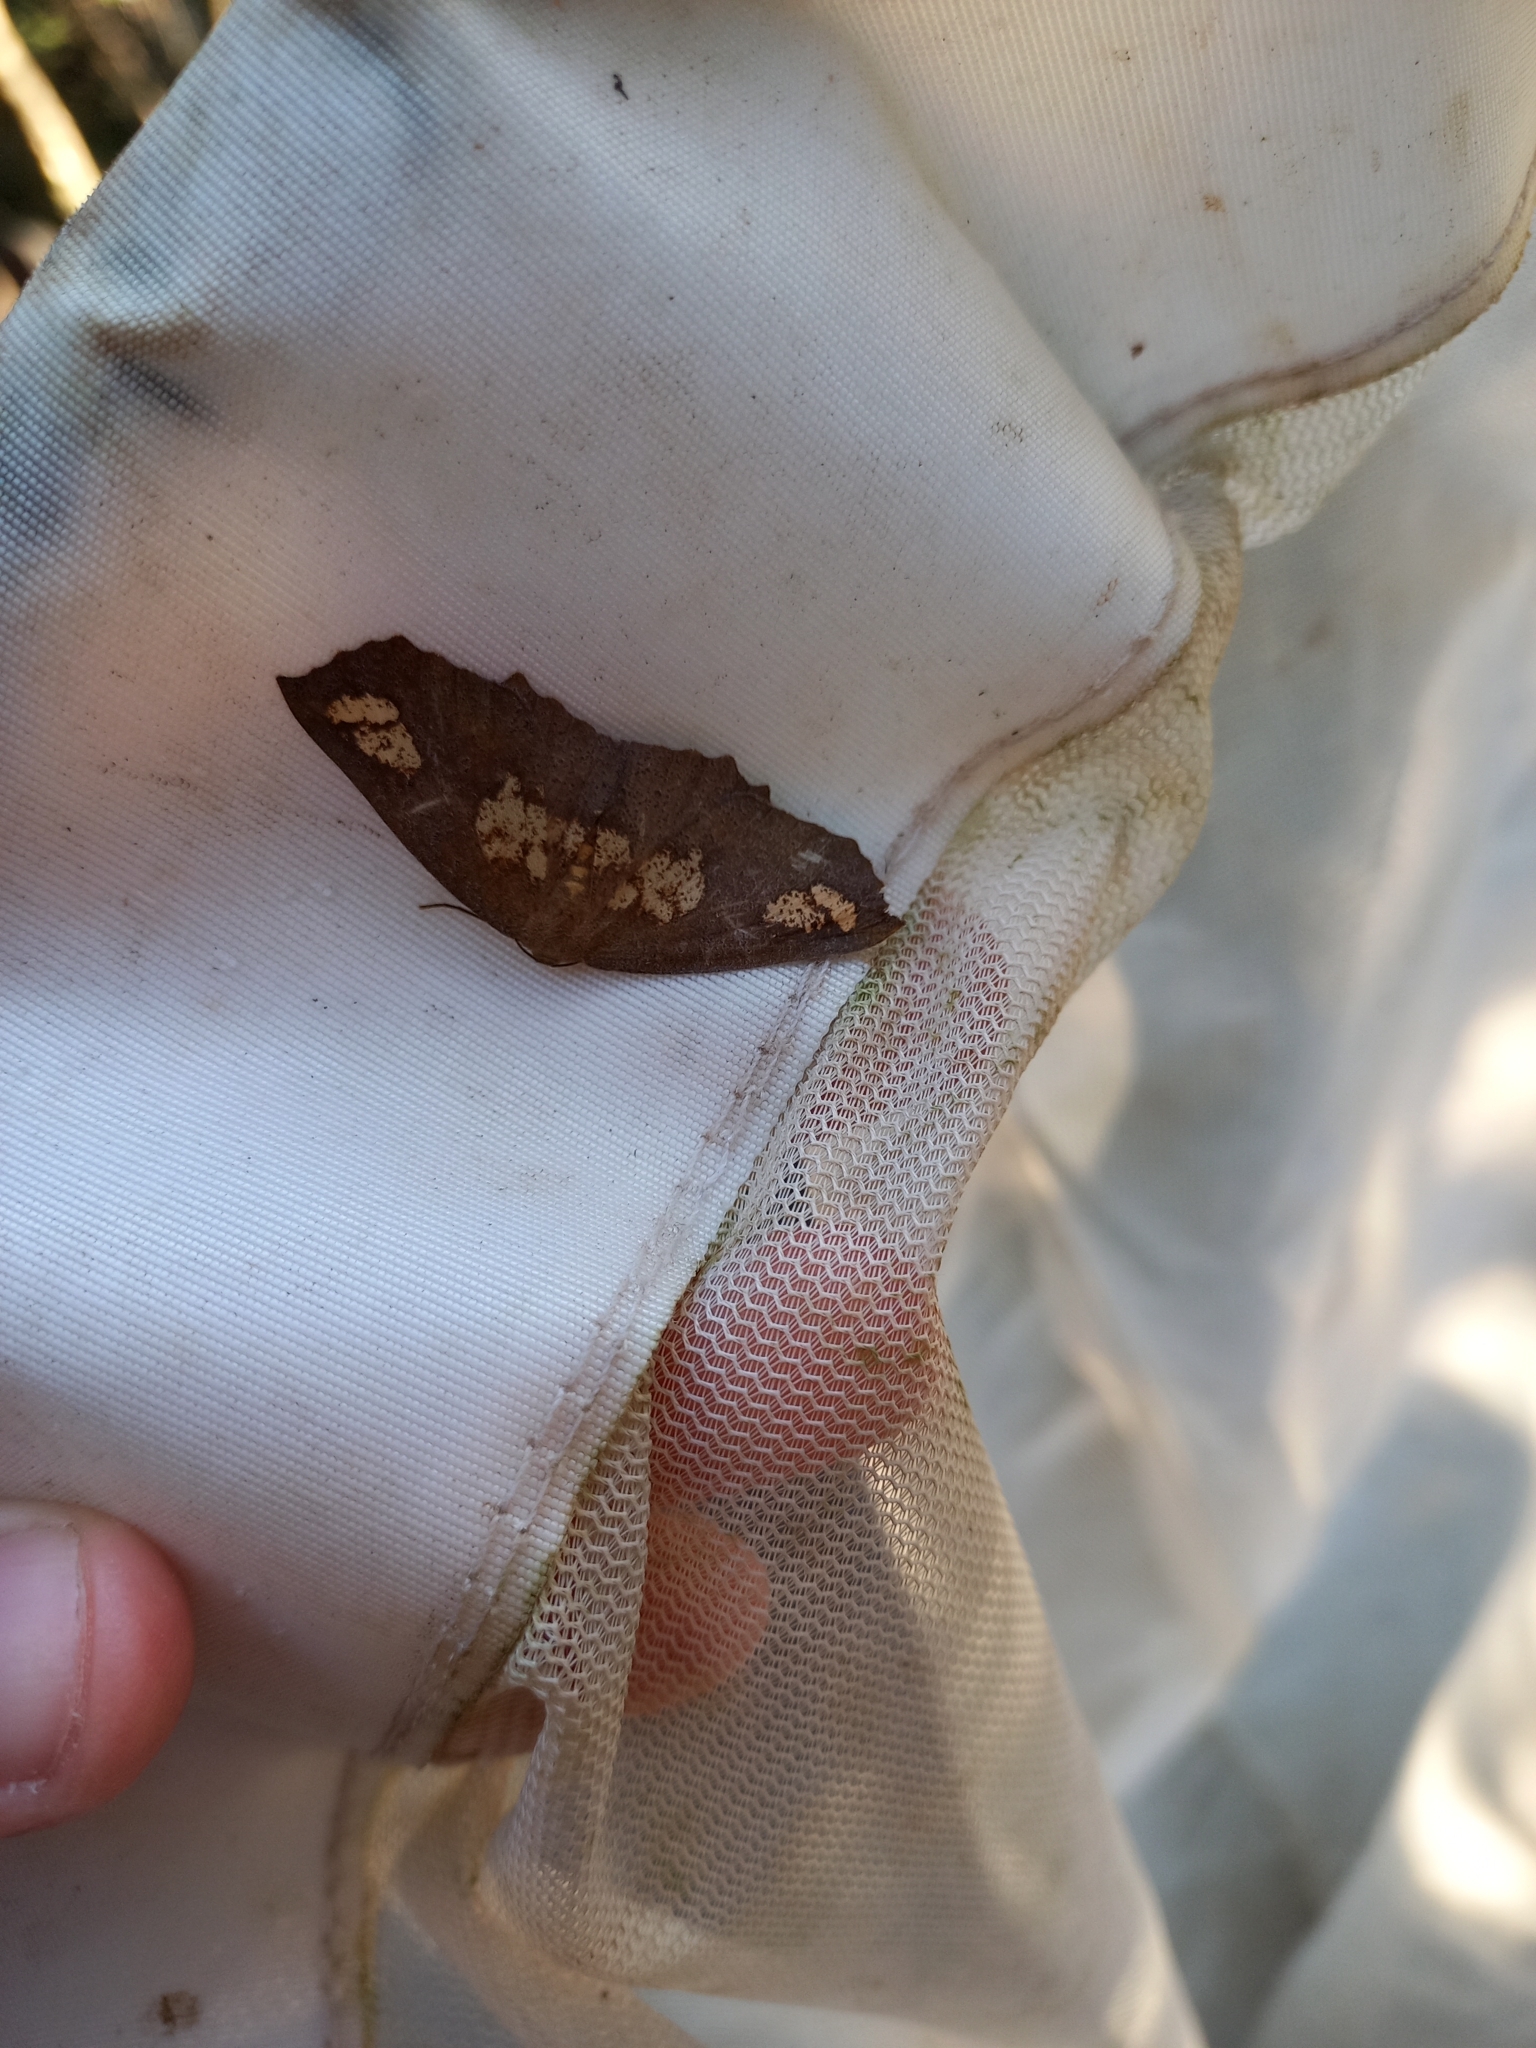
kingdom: Animalia
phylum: Arthropoda
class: Insecta
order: Lepidoptera
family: Geometridae
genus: Xyridacma
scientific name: Xyridacma ustaria
